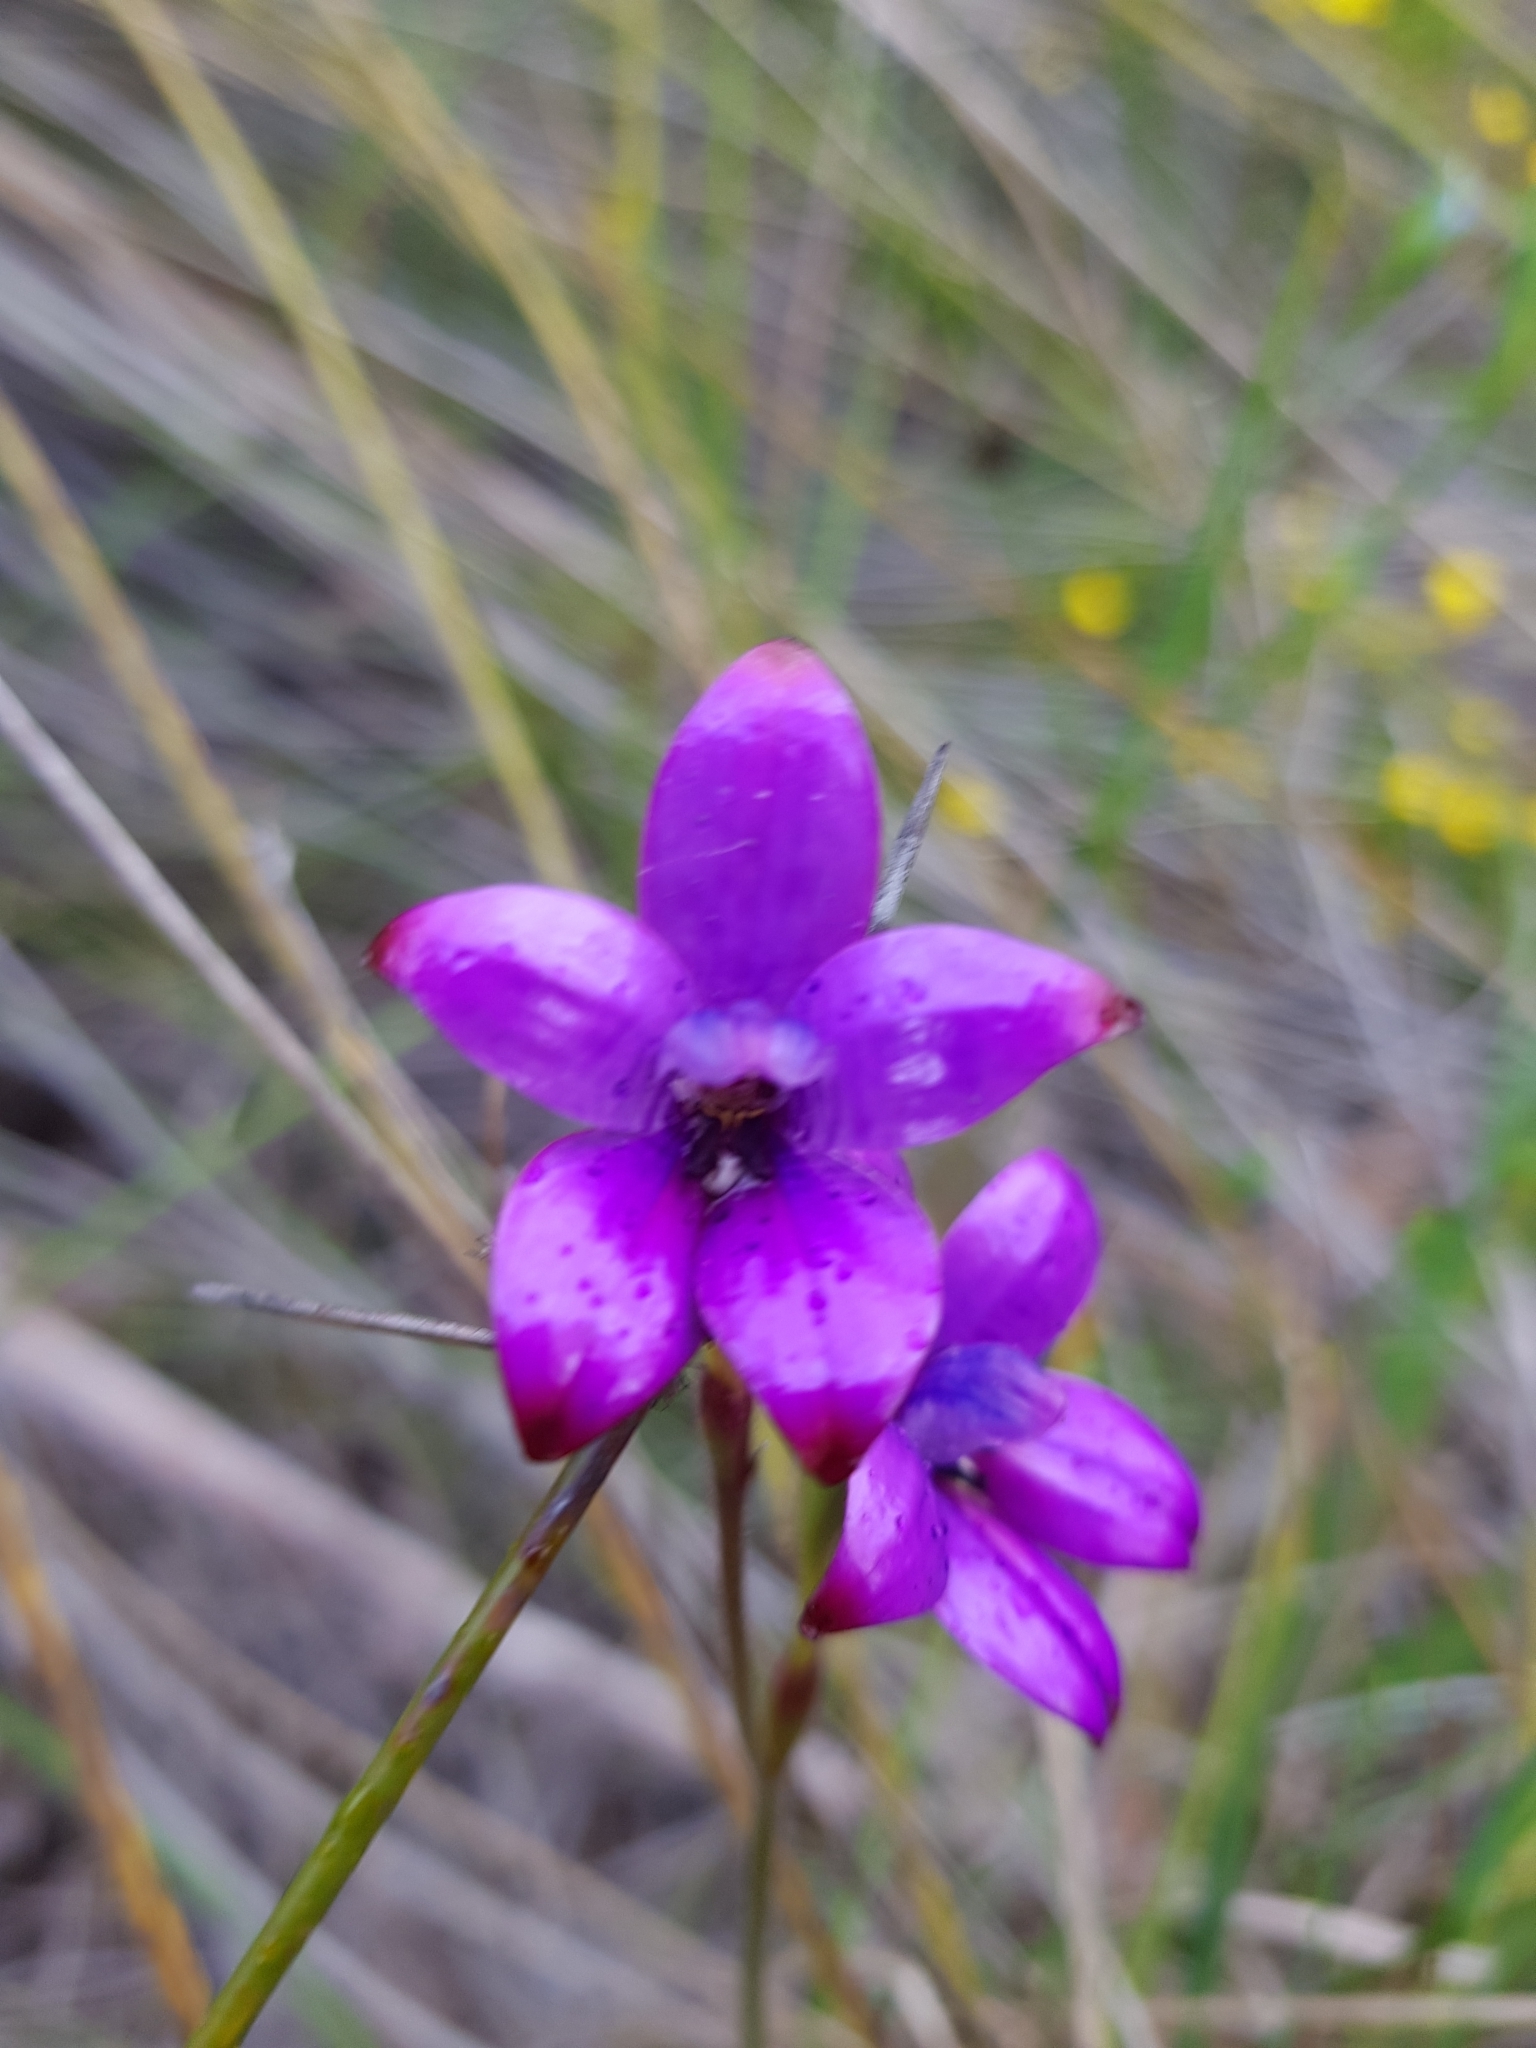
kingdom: Plantae
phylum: Tracheophyta
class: Liliopsida
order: Asparagales
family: Orchidaceae
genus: Caladenia
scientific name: Caladenia brunonis
